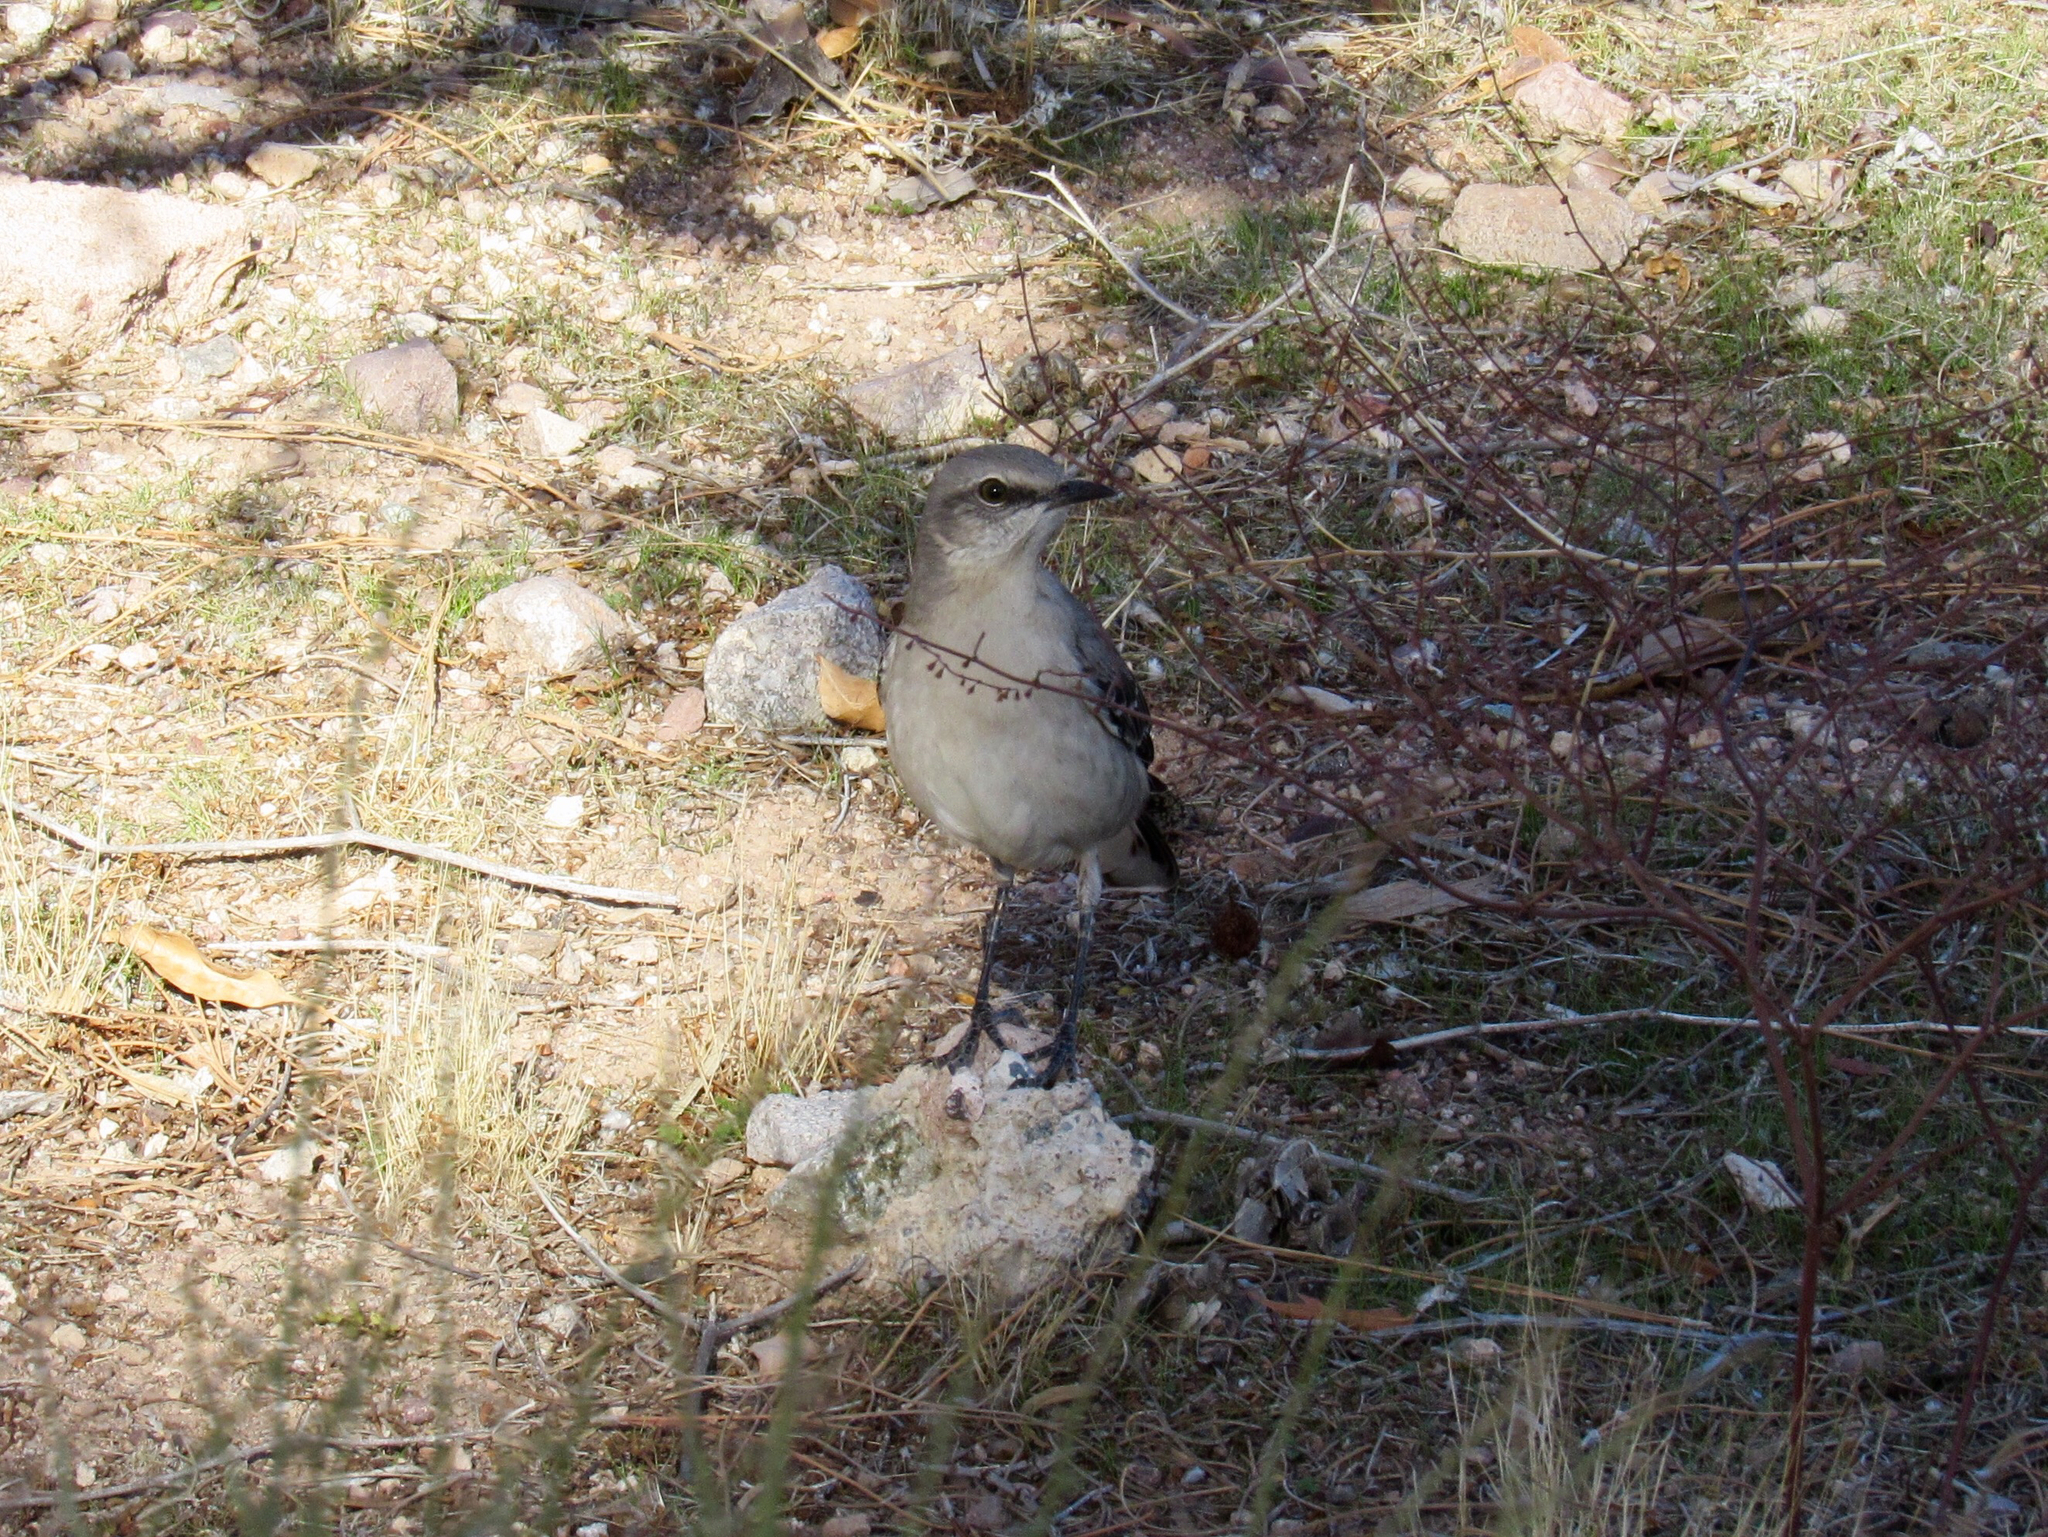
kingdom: Animalia
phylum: Chordata
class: Aves
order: Passeriformes
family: Mimidae
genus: Mimus
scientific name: Mimus polyglottos
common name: Northern mockingbird
